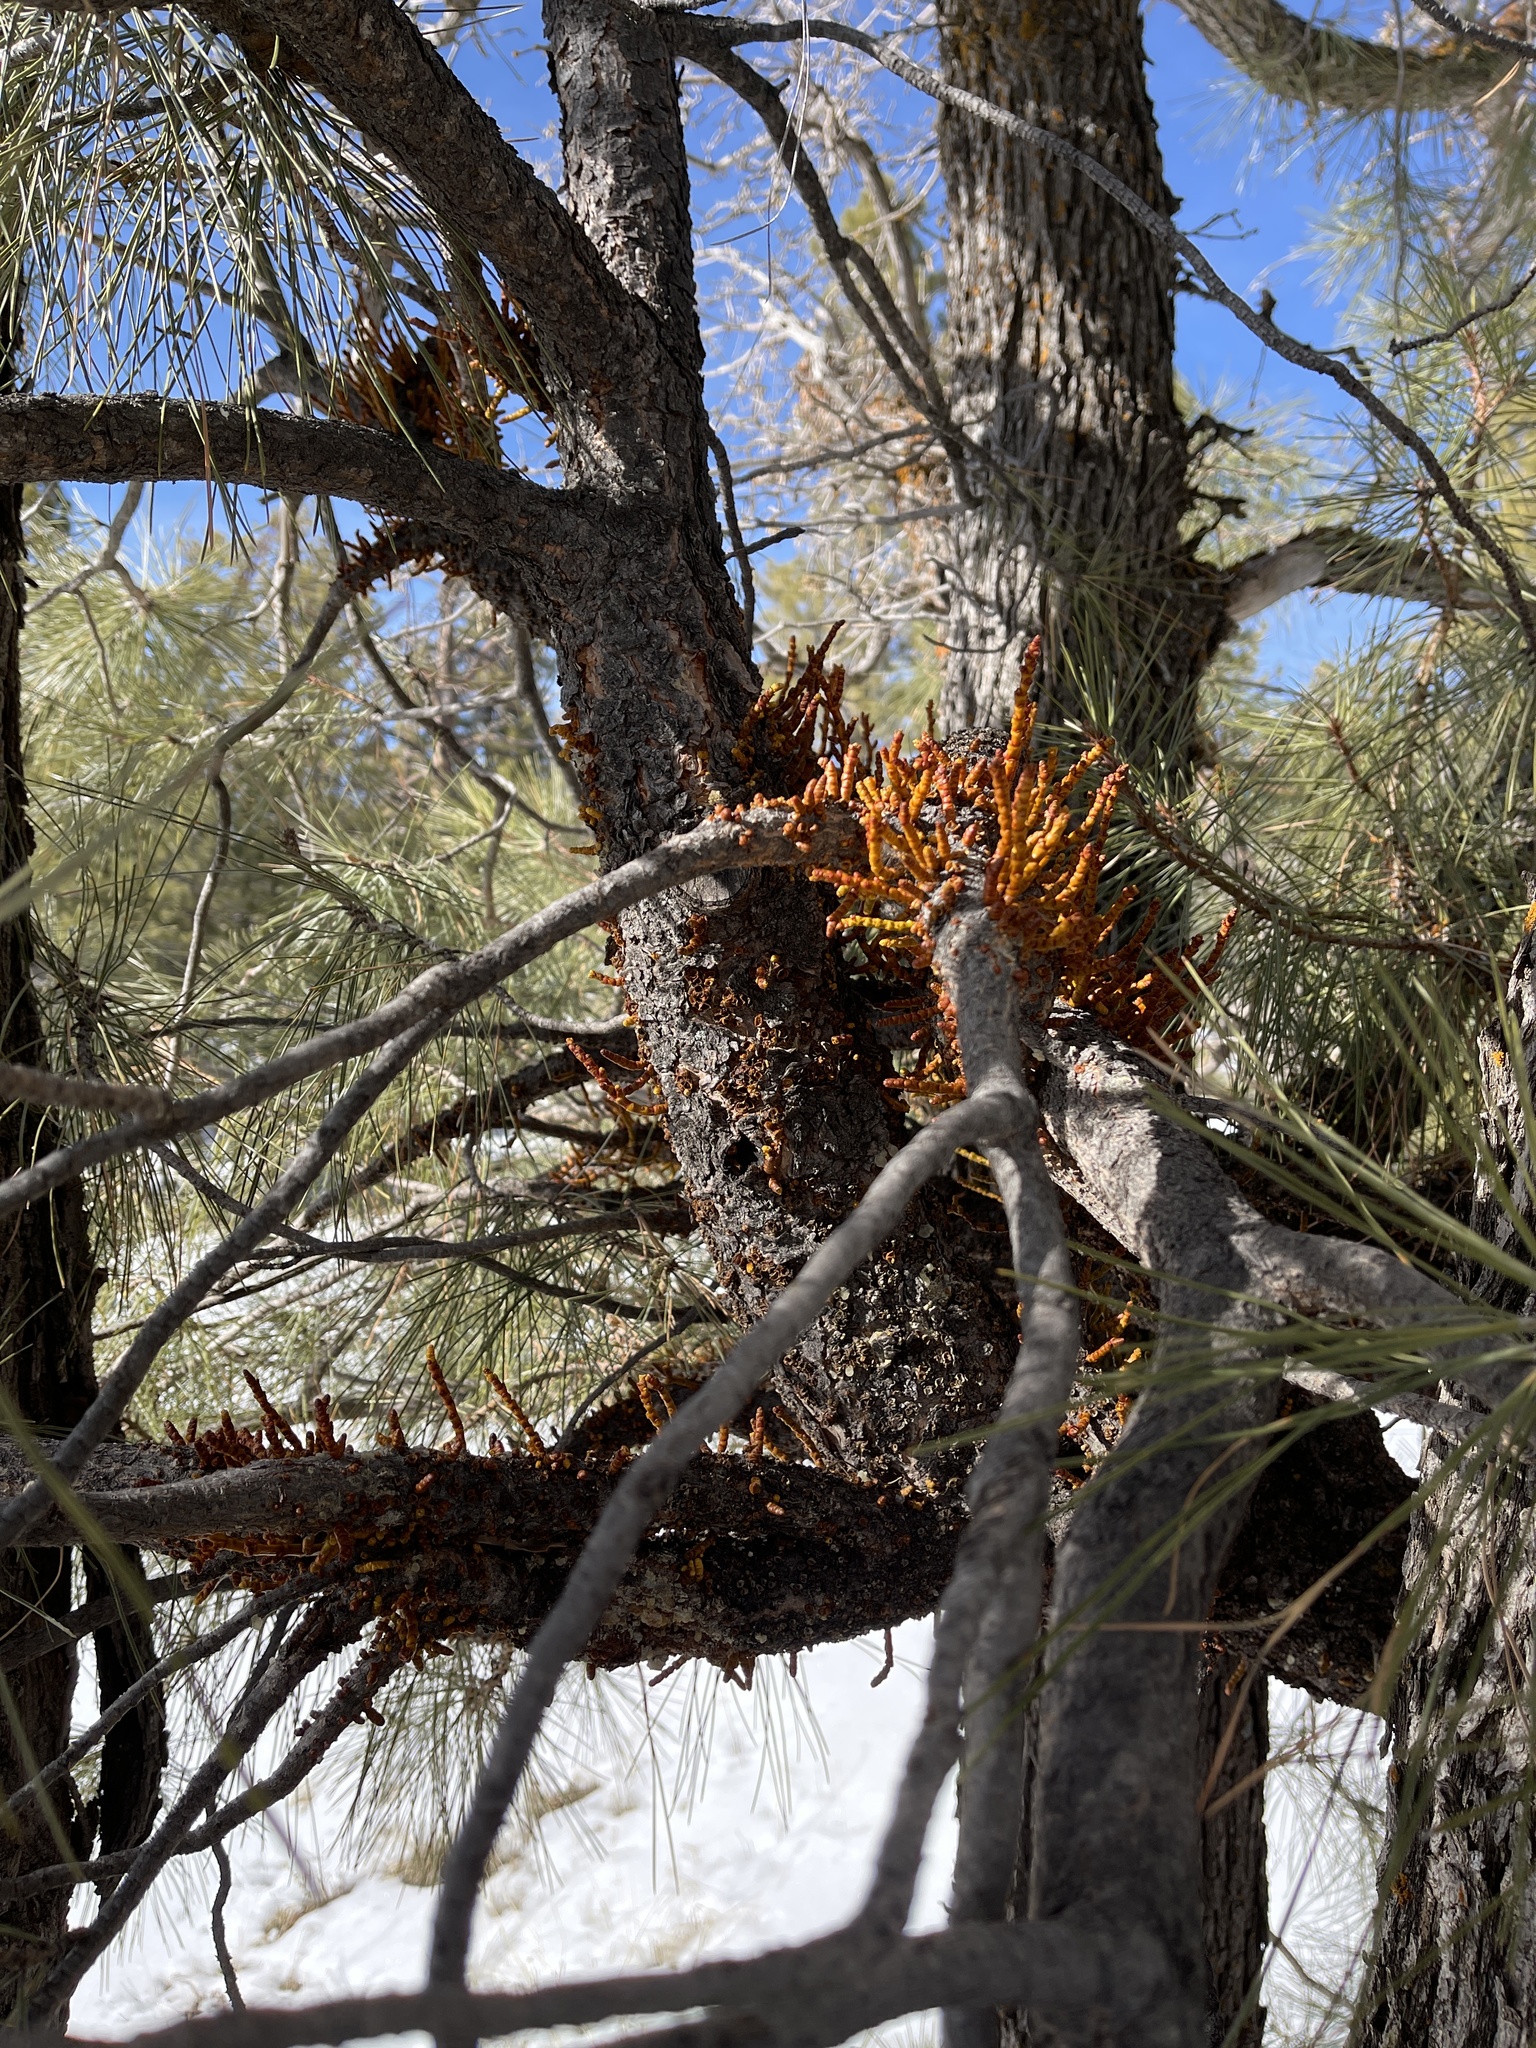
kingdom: Plantae
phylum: Tracheophyta
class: Magnoliopsida
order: Santalales
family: Viscaceae
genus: Arceuthobium
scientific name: Arceuthobium vaginatum
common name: Southwestern dwarf-mistletoe
